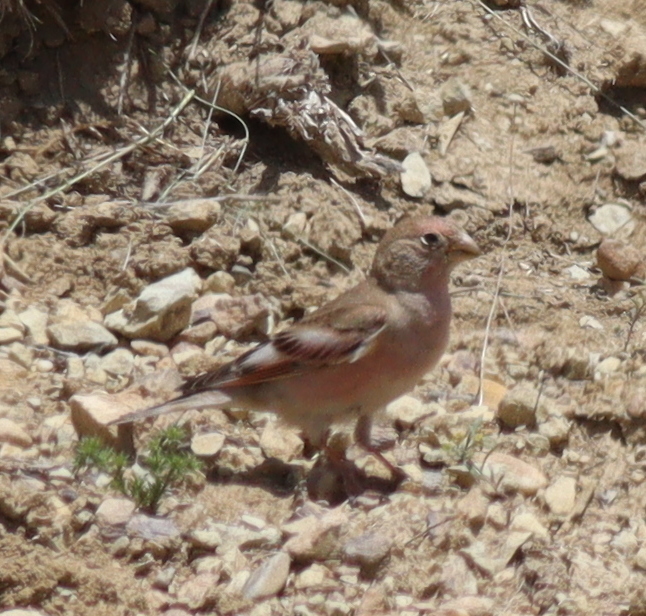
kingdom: Animalia
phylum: Chordata
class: Aves
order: Passeriformes
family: Fringillidae
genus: Bucanetes
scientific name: Bucanetes mongolicus
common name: Mongolian finch
